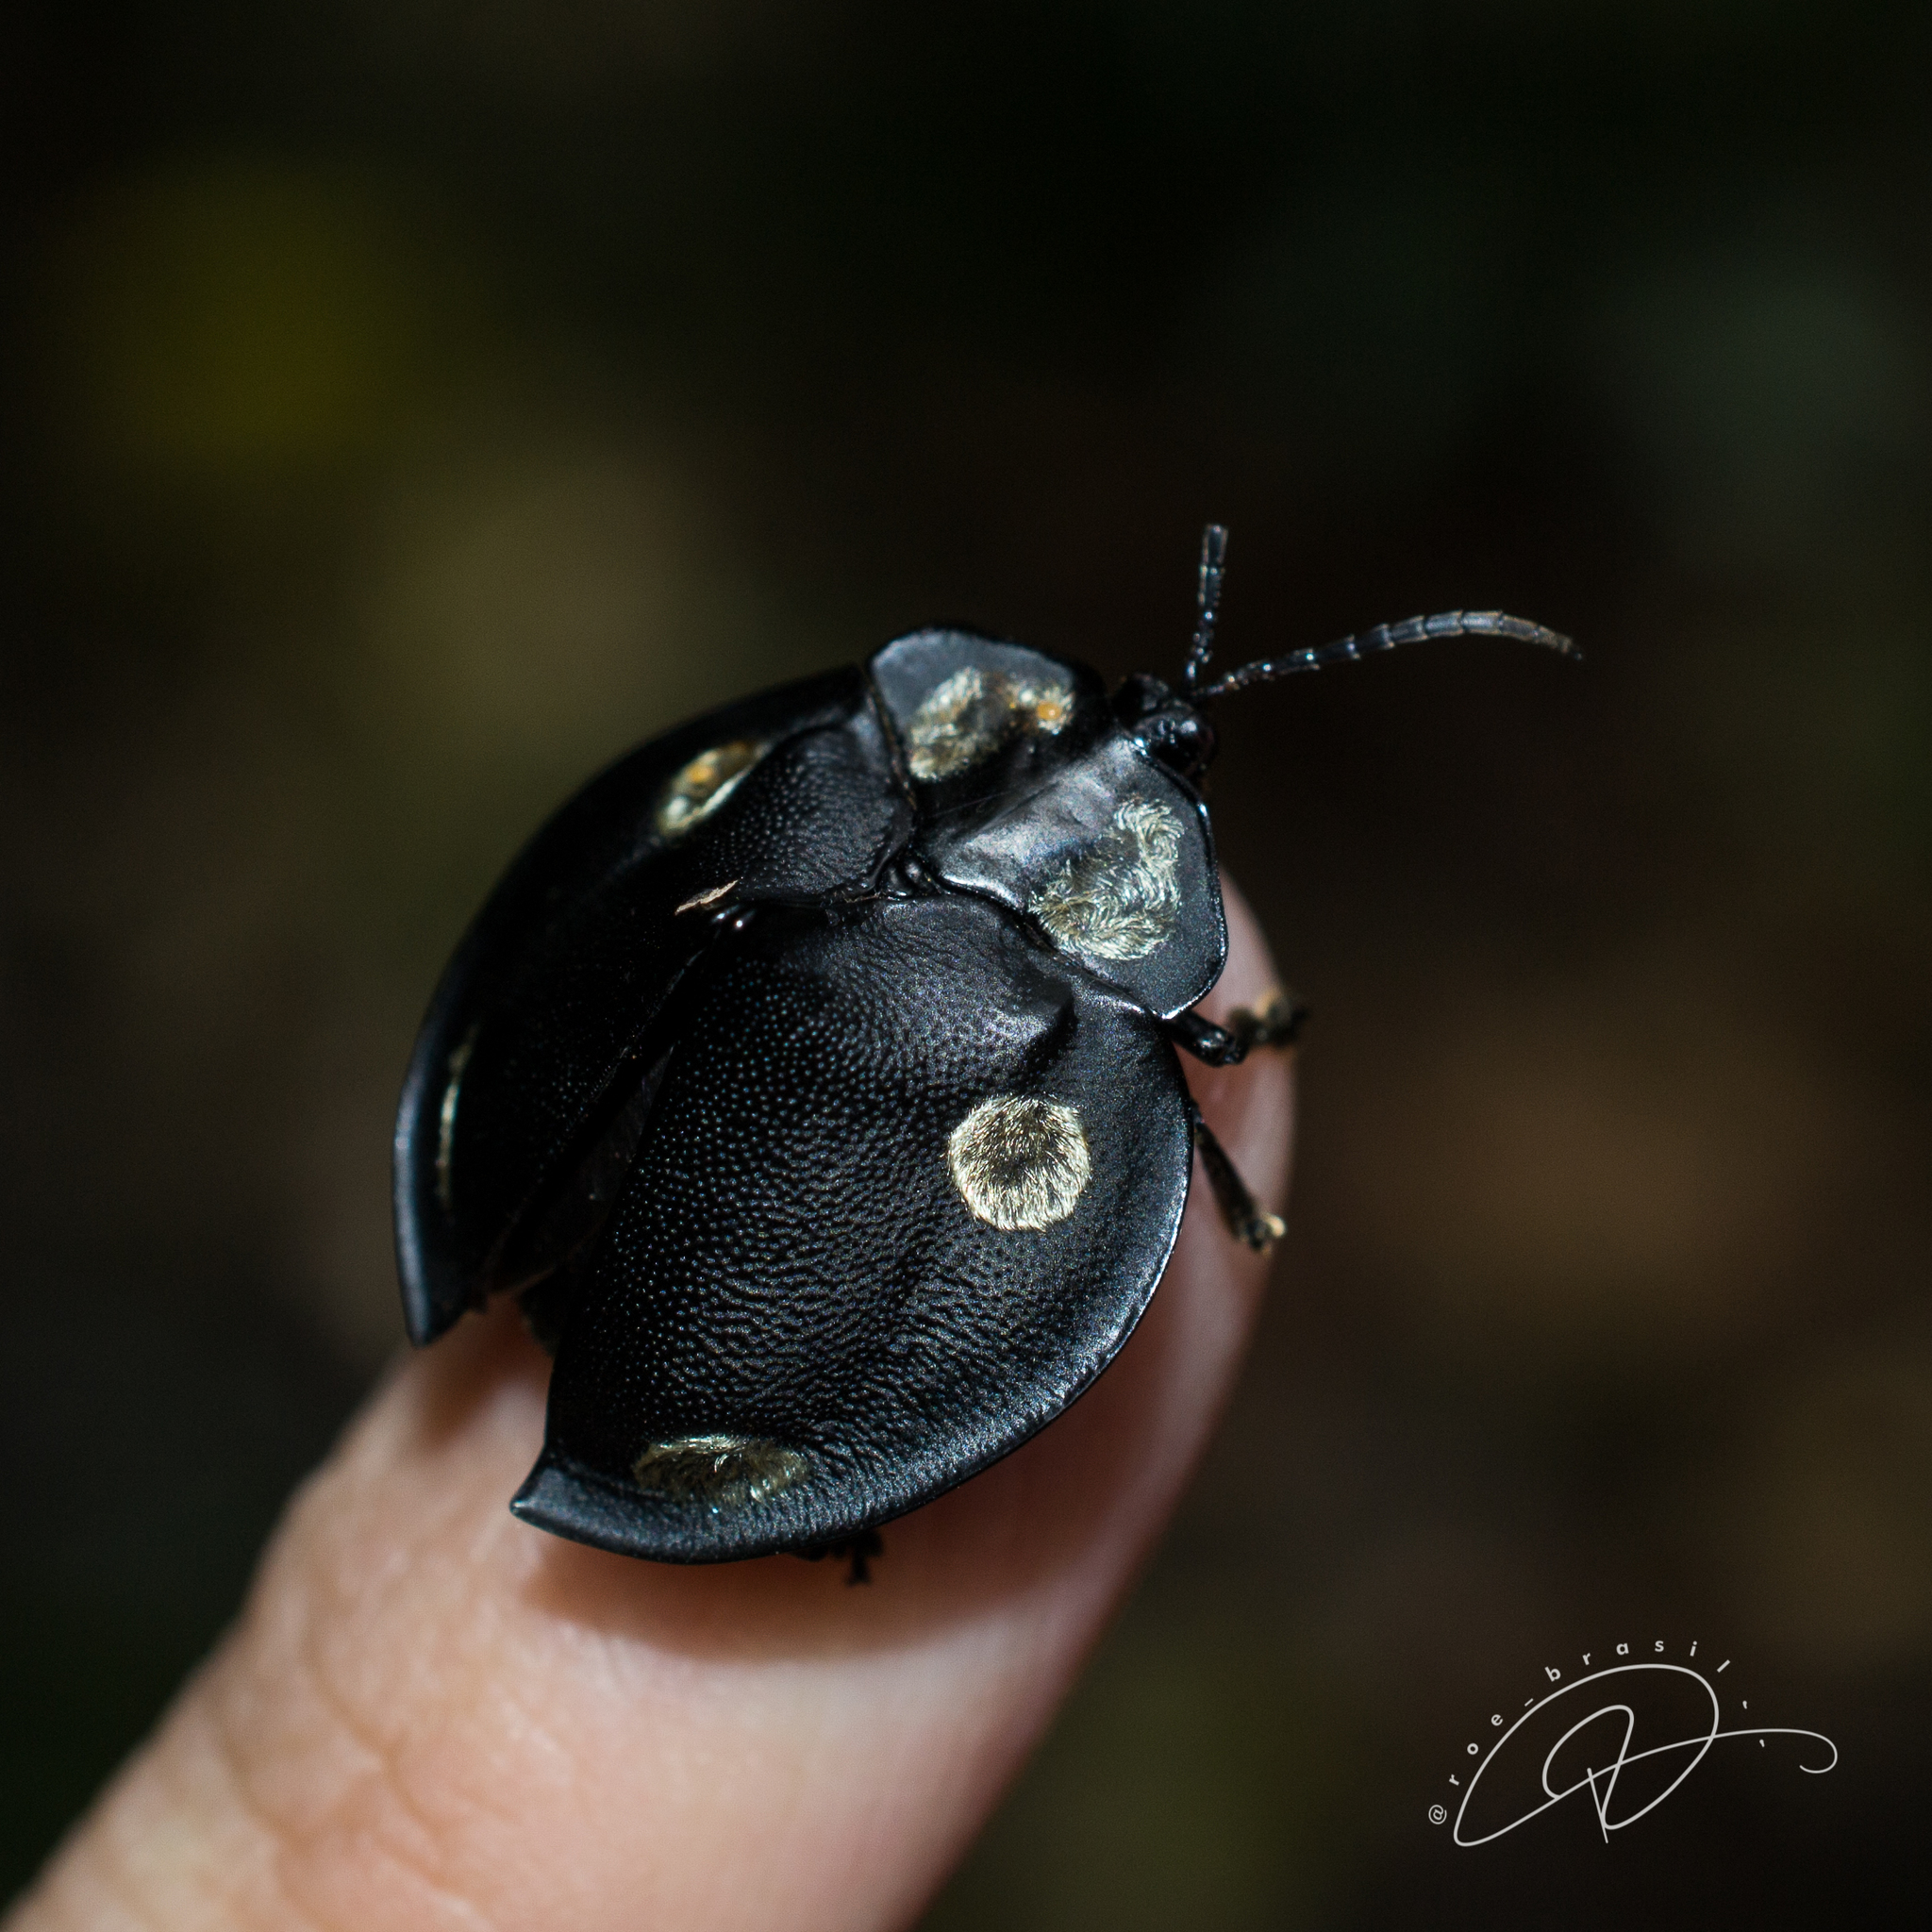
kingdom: Animalia
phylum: Arthropoda
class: Insecta
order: Coleoptera
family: Chrysomelidae
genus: Mesomphalia
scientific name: Mesomphalia turrita
